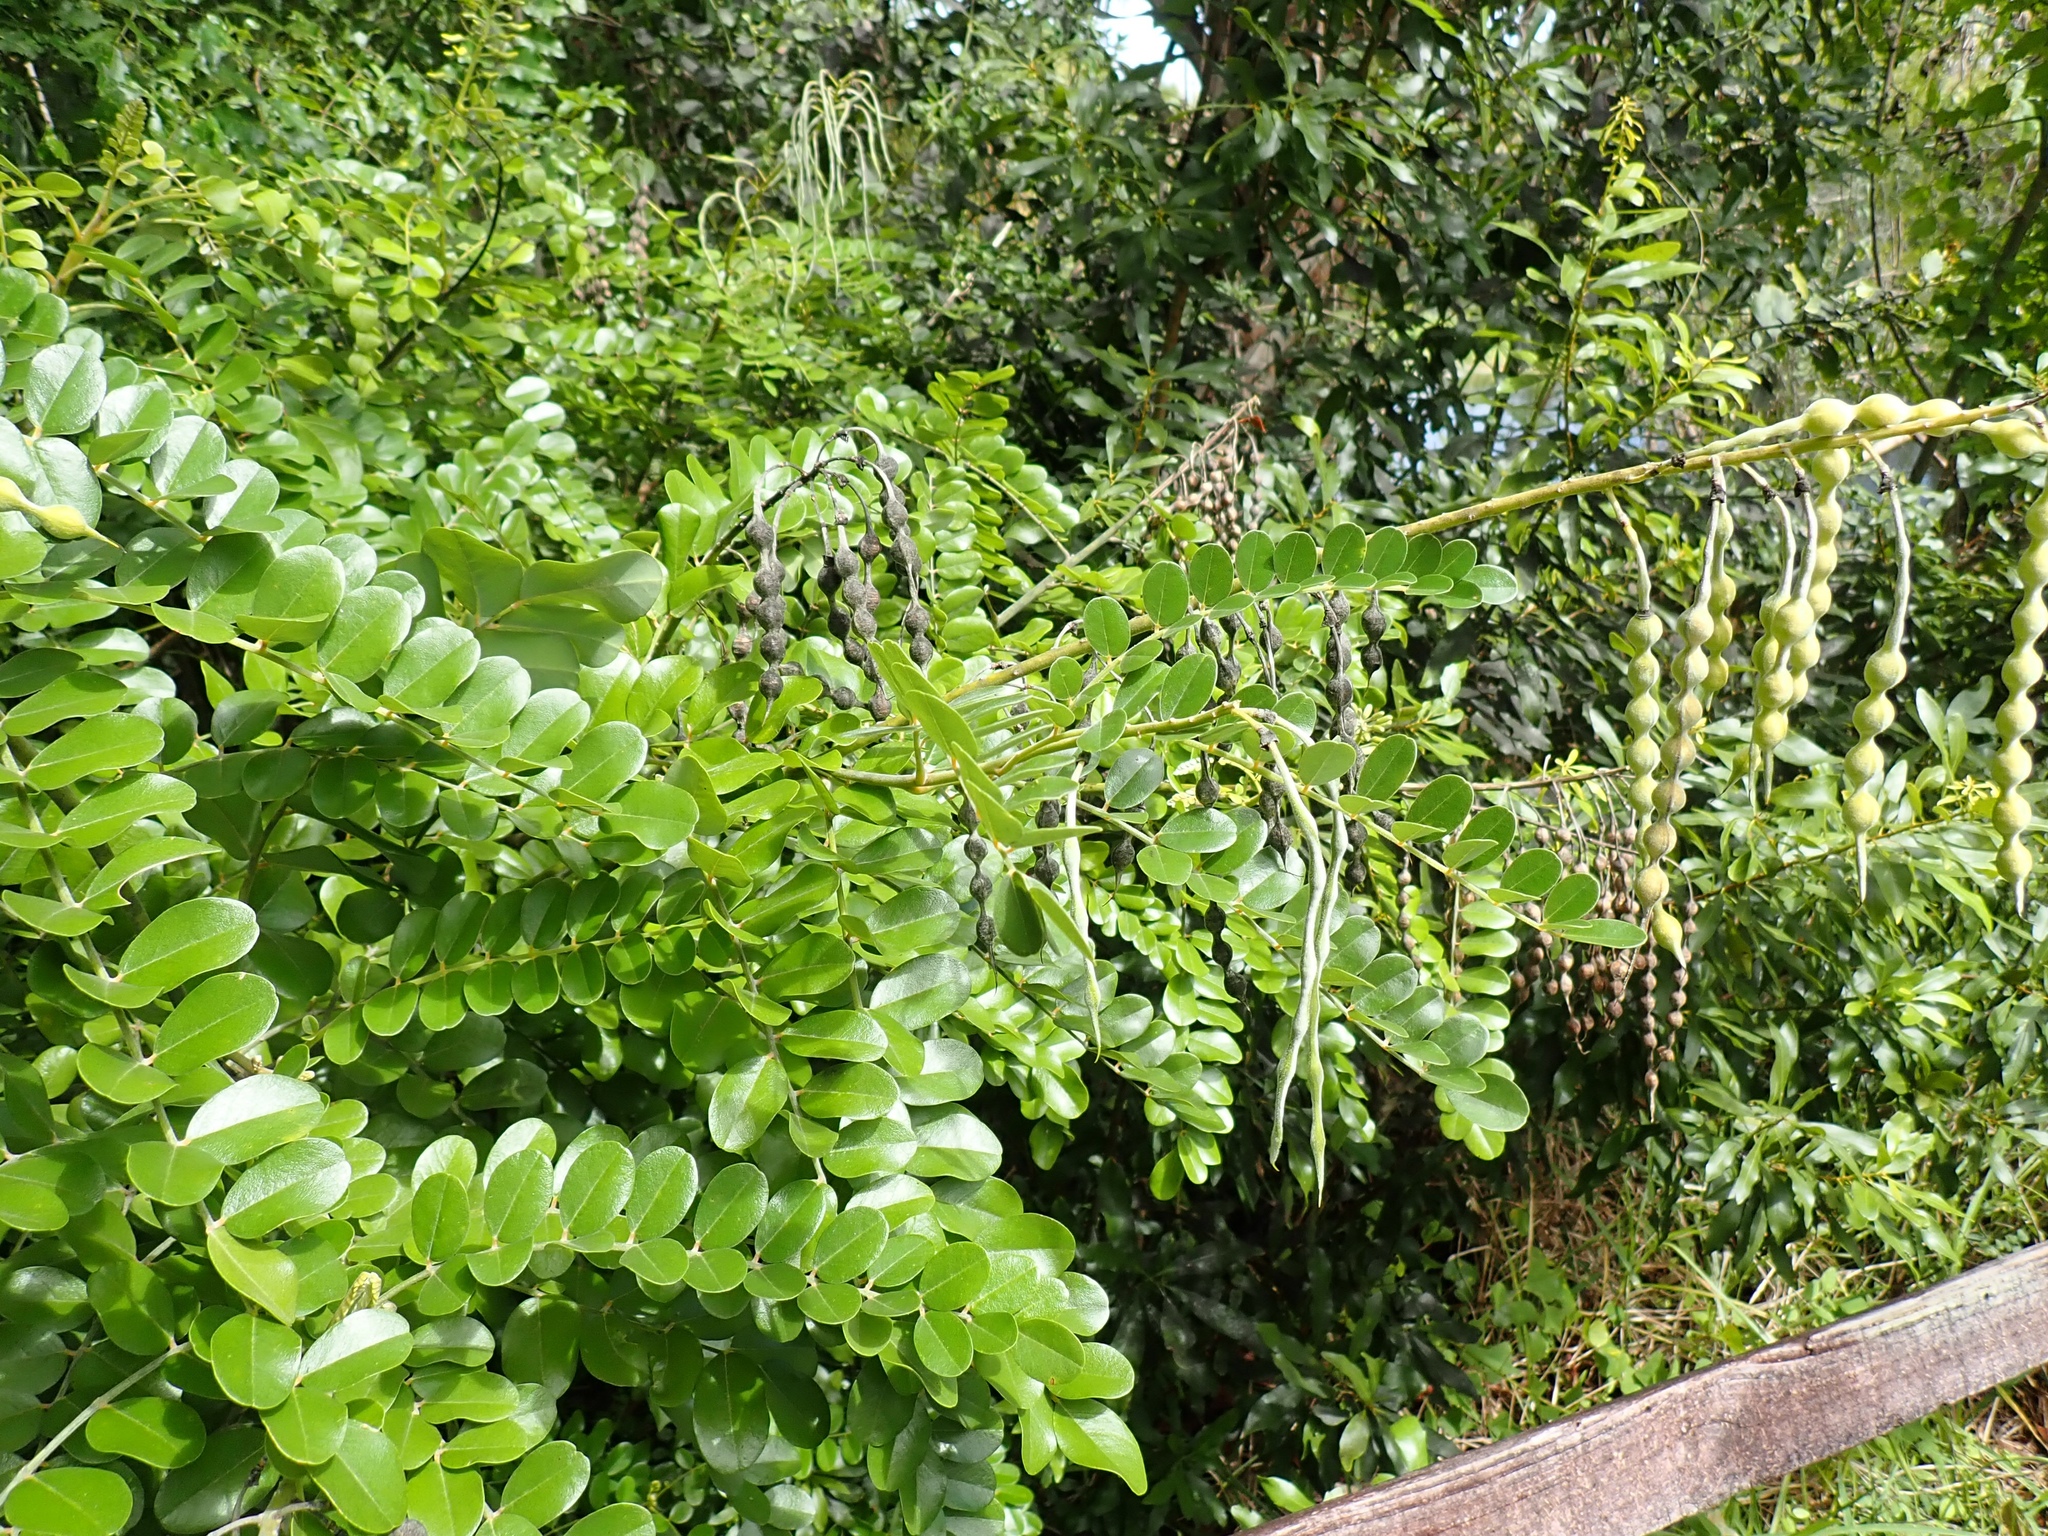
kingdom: Plantae
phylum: Tracheophyta
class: Magnoliopsida
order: Fabales
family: Fabaceae
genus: Sophora
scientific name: Sophora tomentosa
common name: Yellow necklacepod
